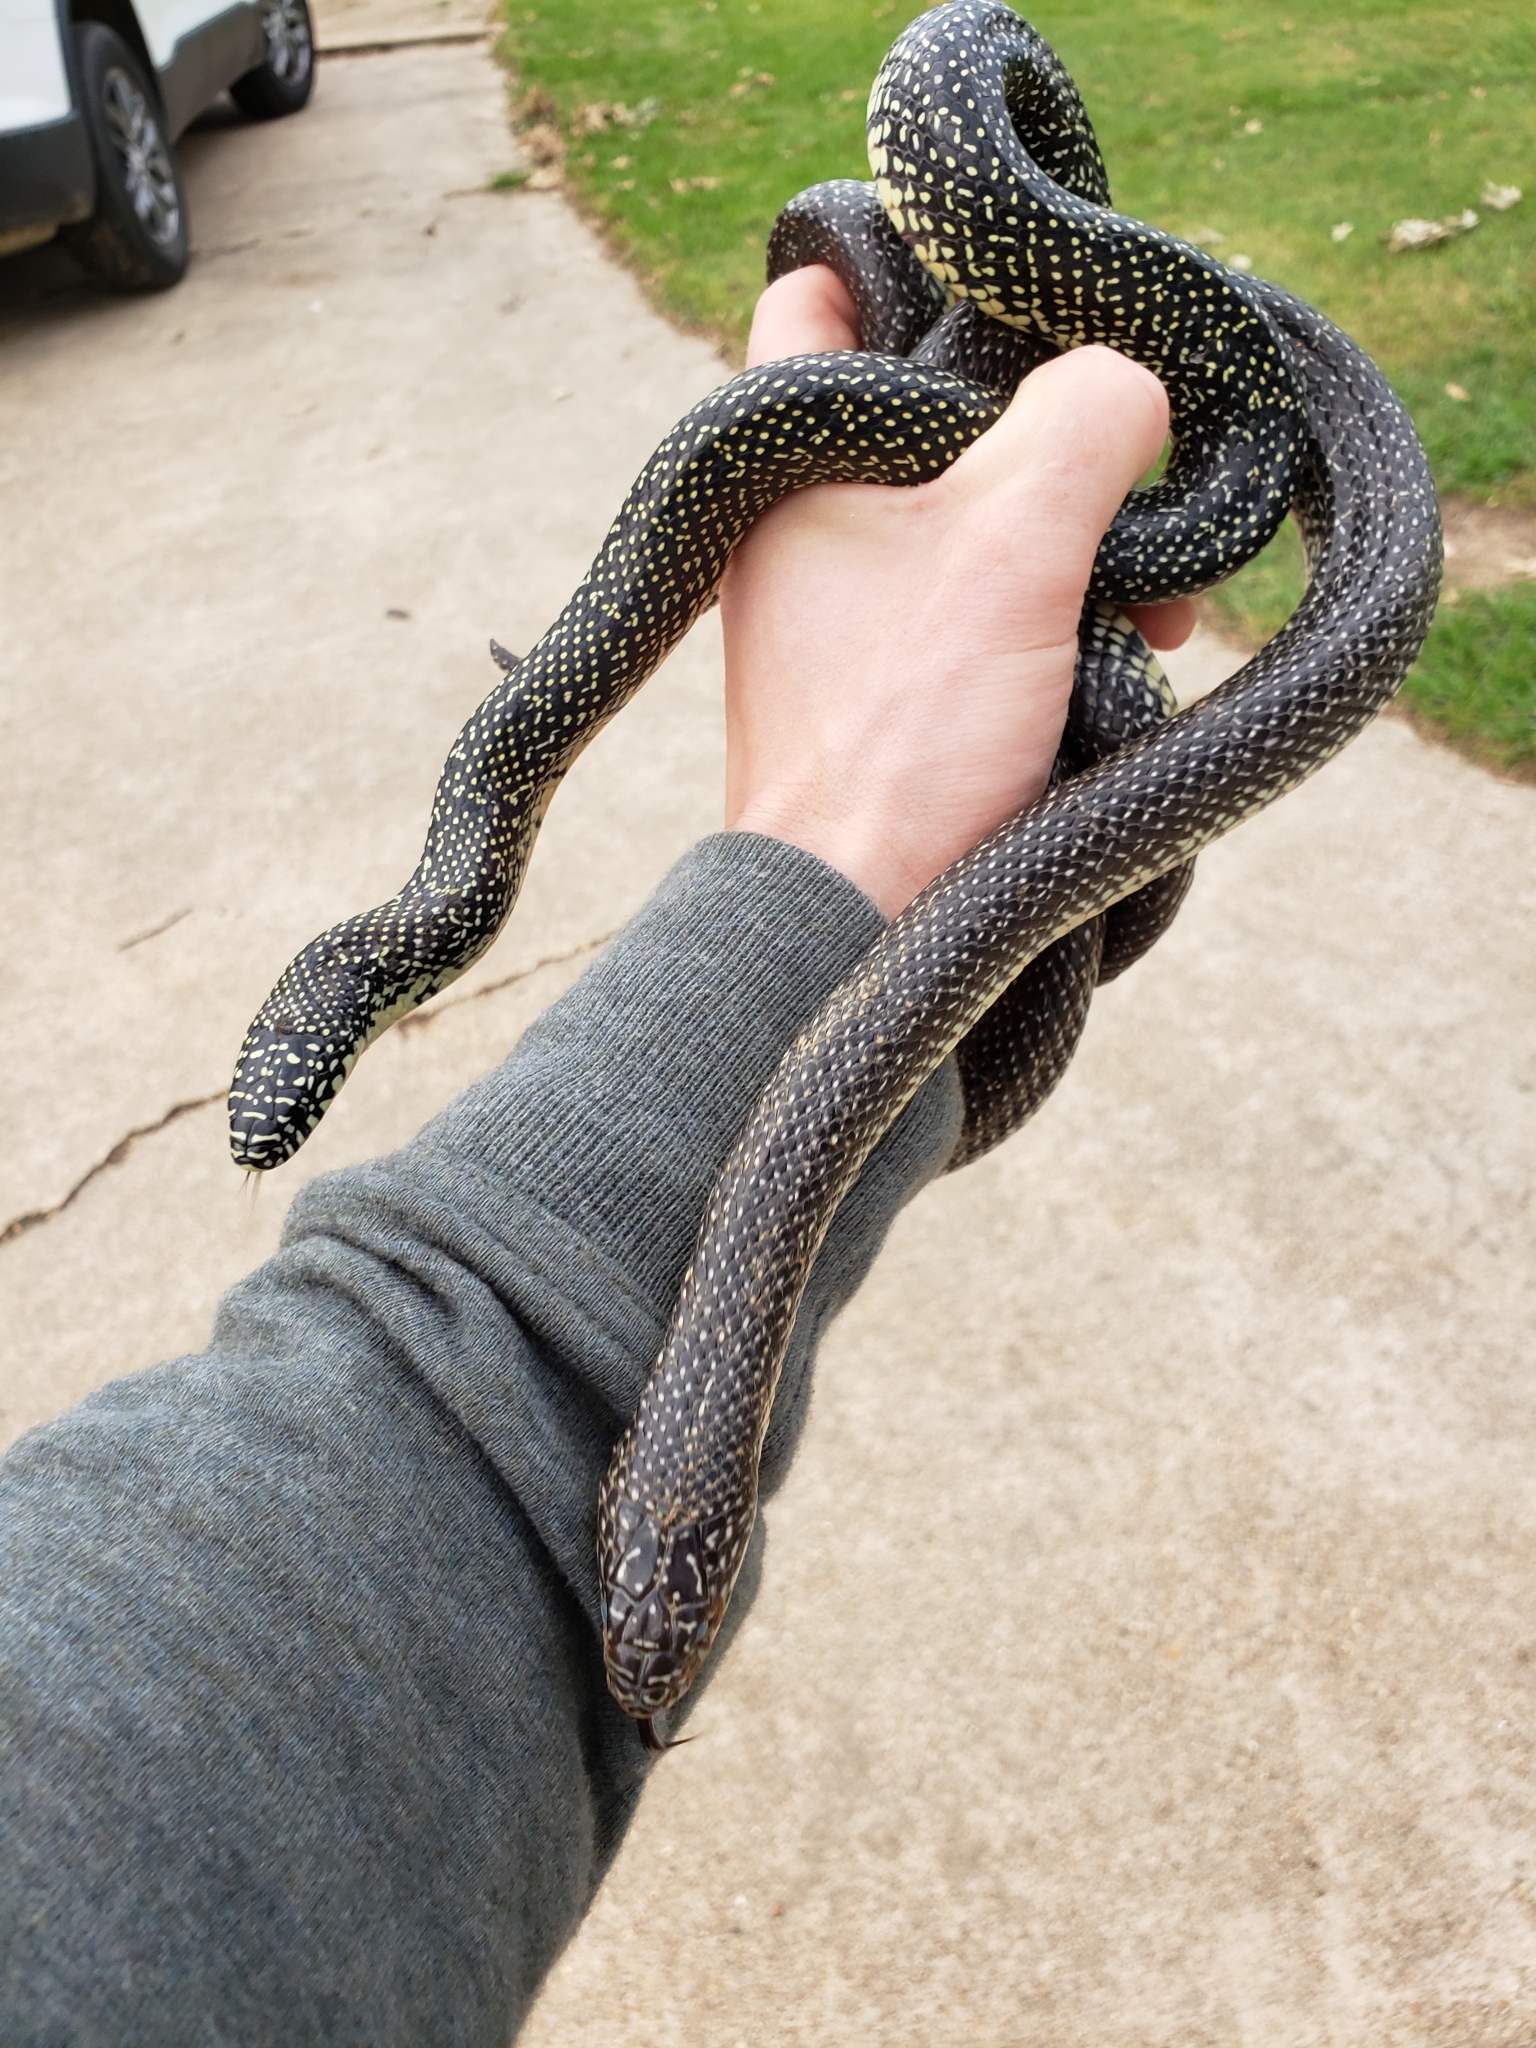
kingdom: Animalia
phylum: Chordata
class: Squamata
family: Colubridae
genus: Lampropeltis
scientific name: Lampropeltis holbrooki
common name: Speckled kingsnake
